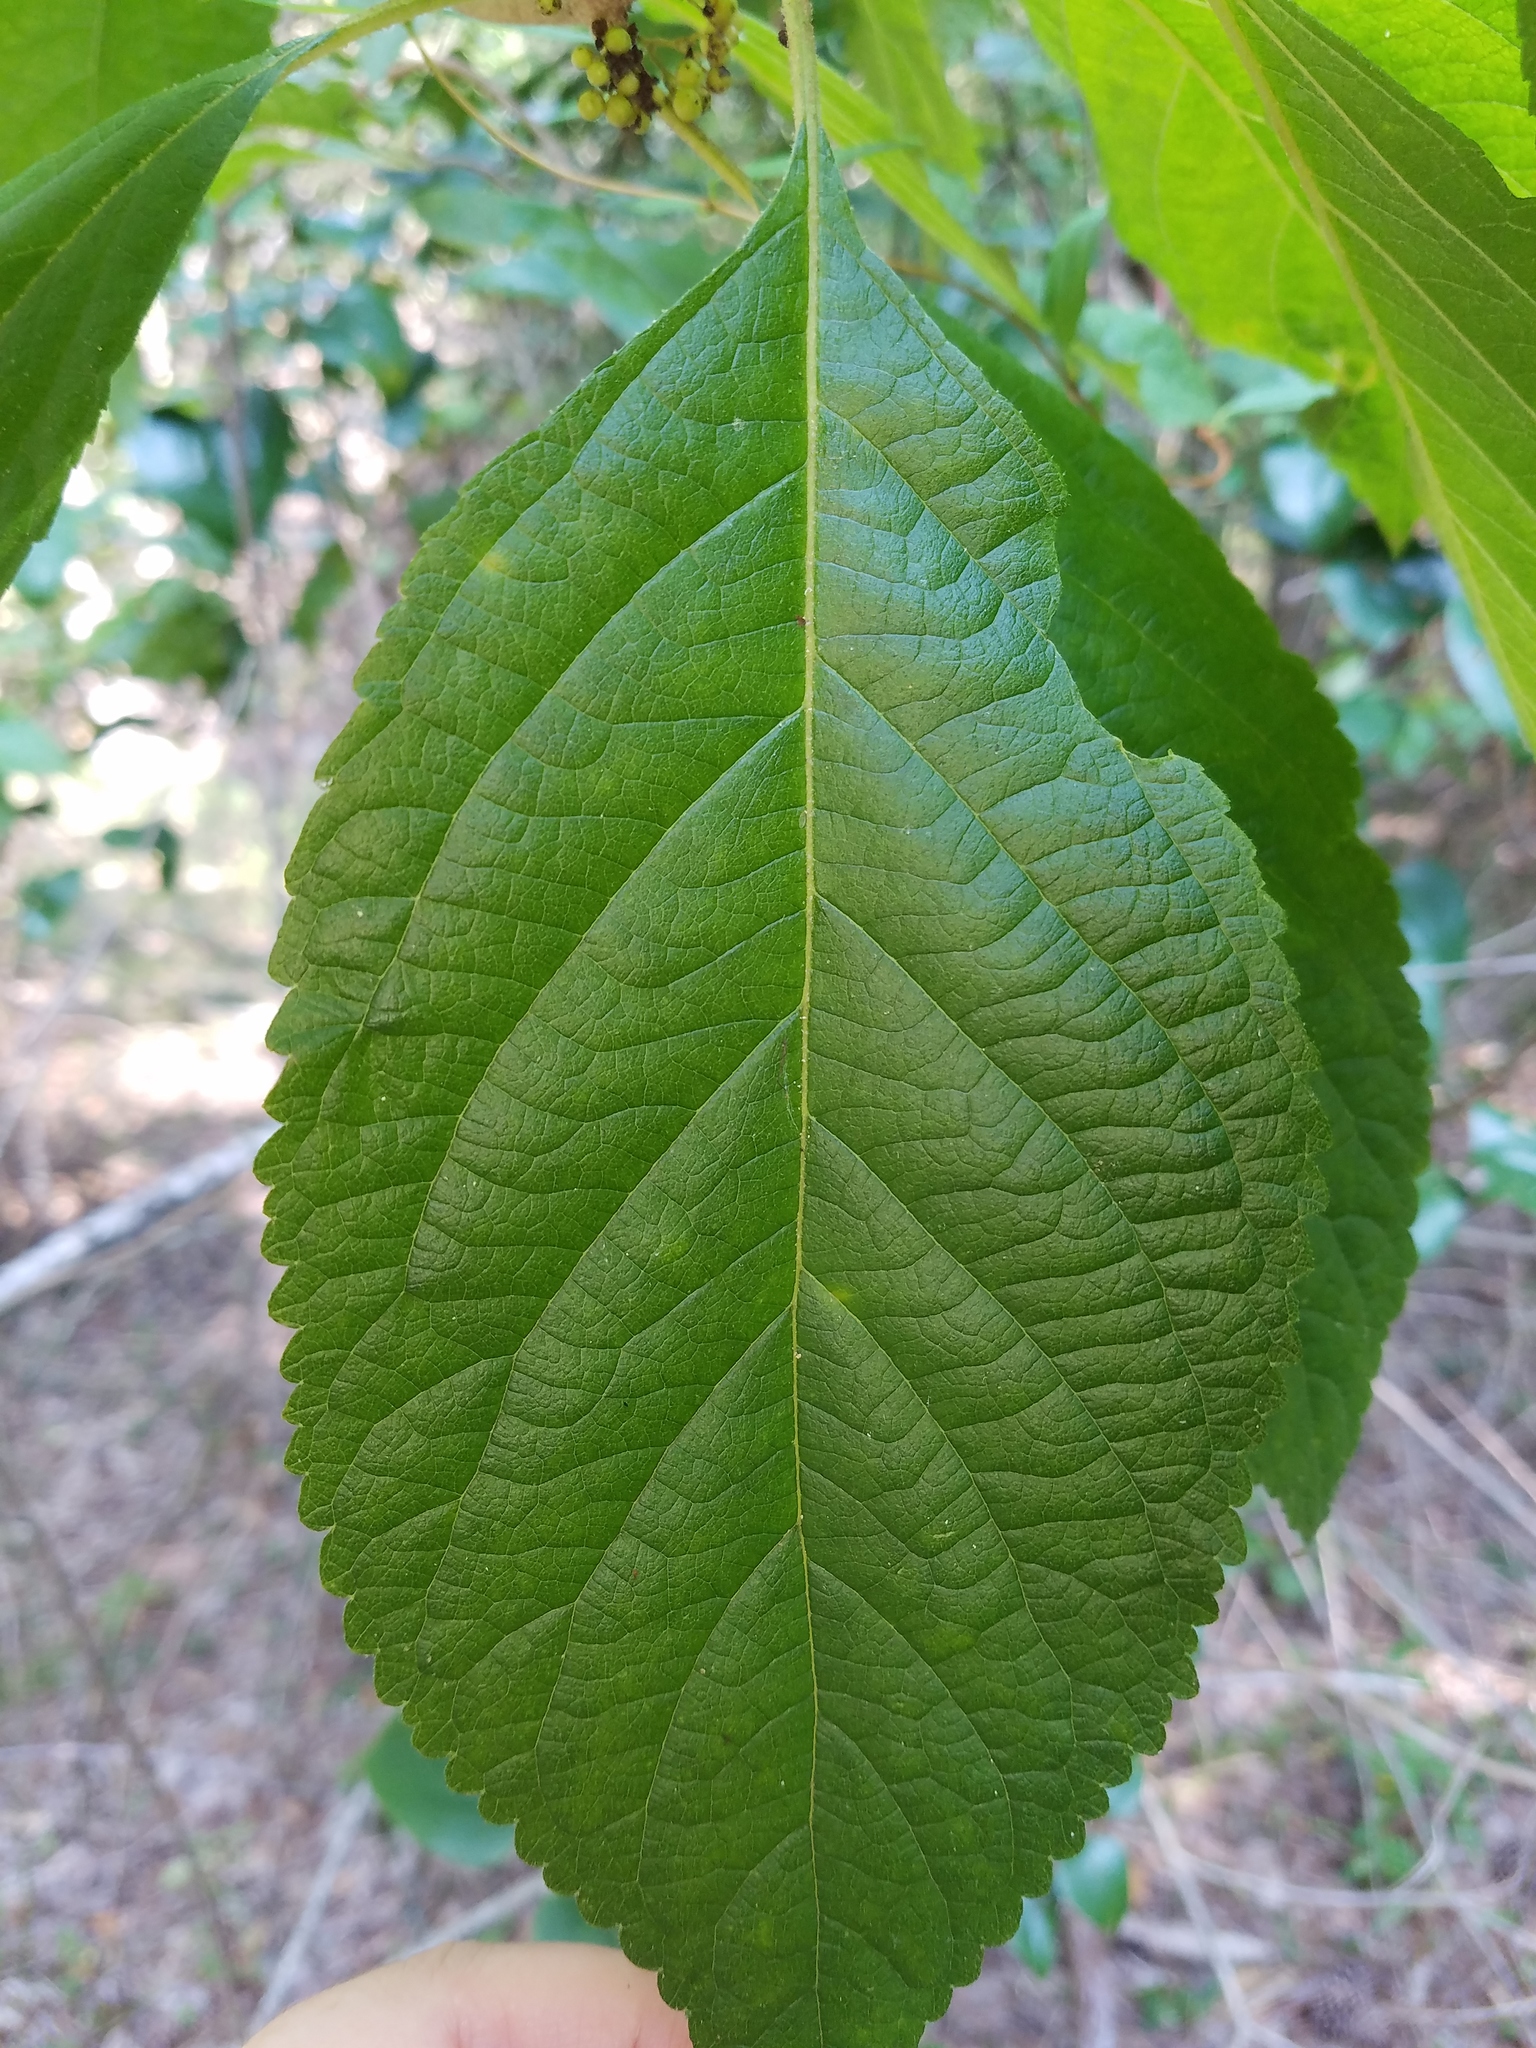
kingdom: Plantae
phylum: Tracheophyta
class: Magnoliopsida
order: Lamiales
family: Lamiaceae
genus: Callicarpa
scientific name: Callicarpa americana
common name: American beautyberry
